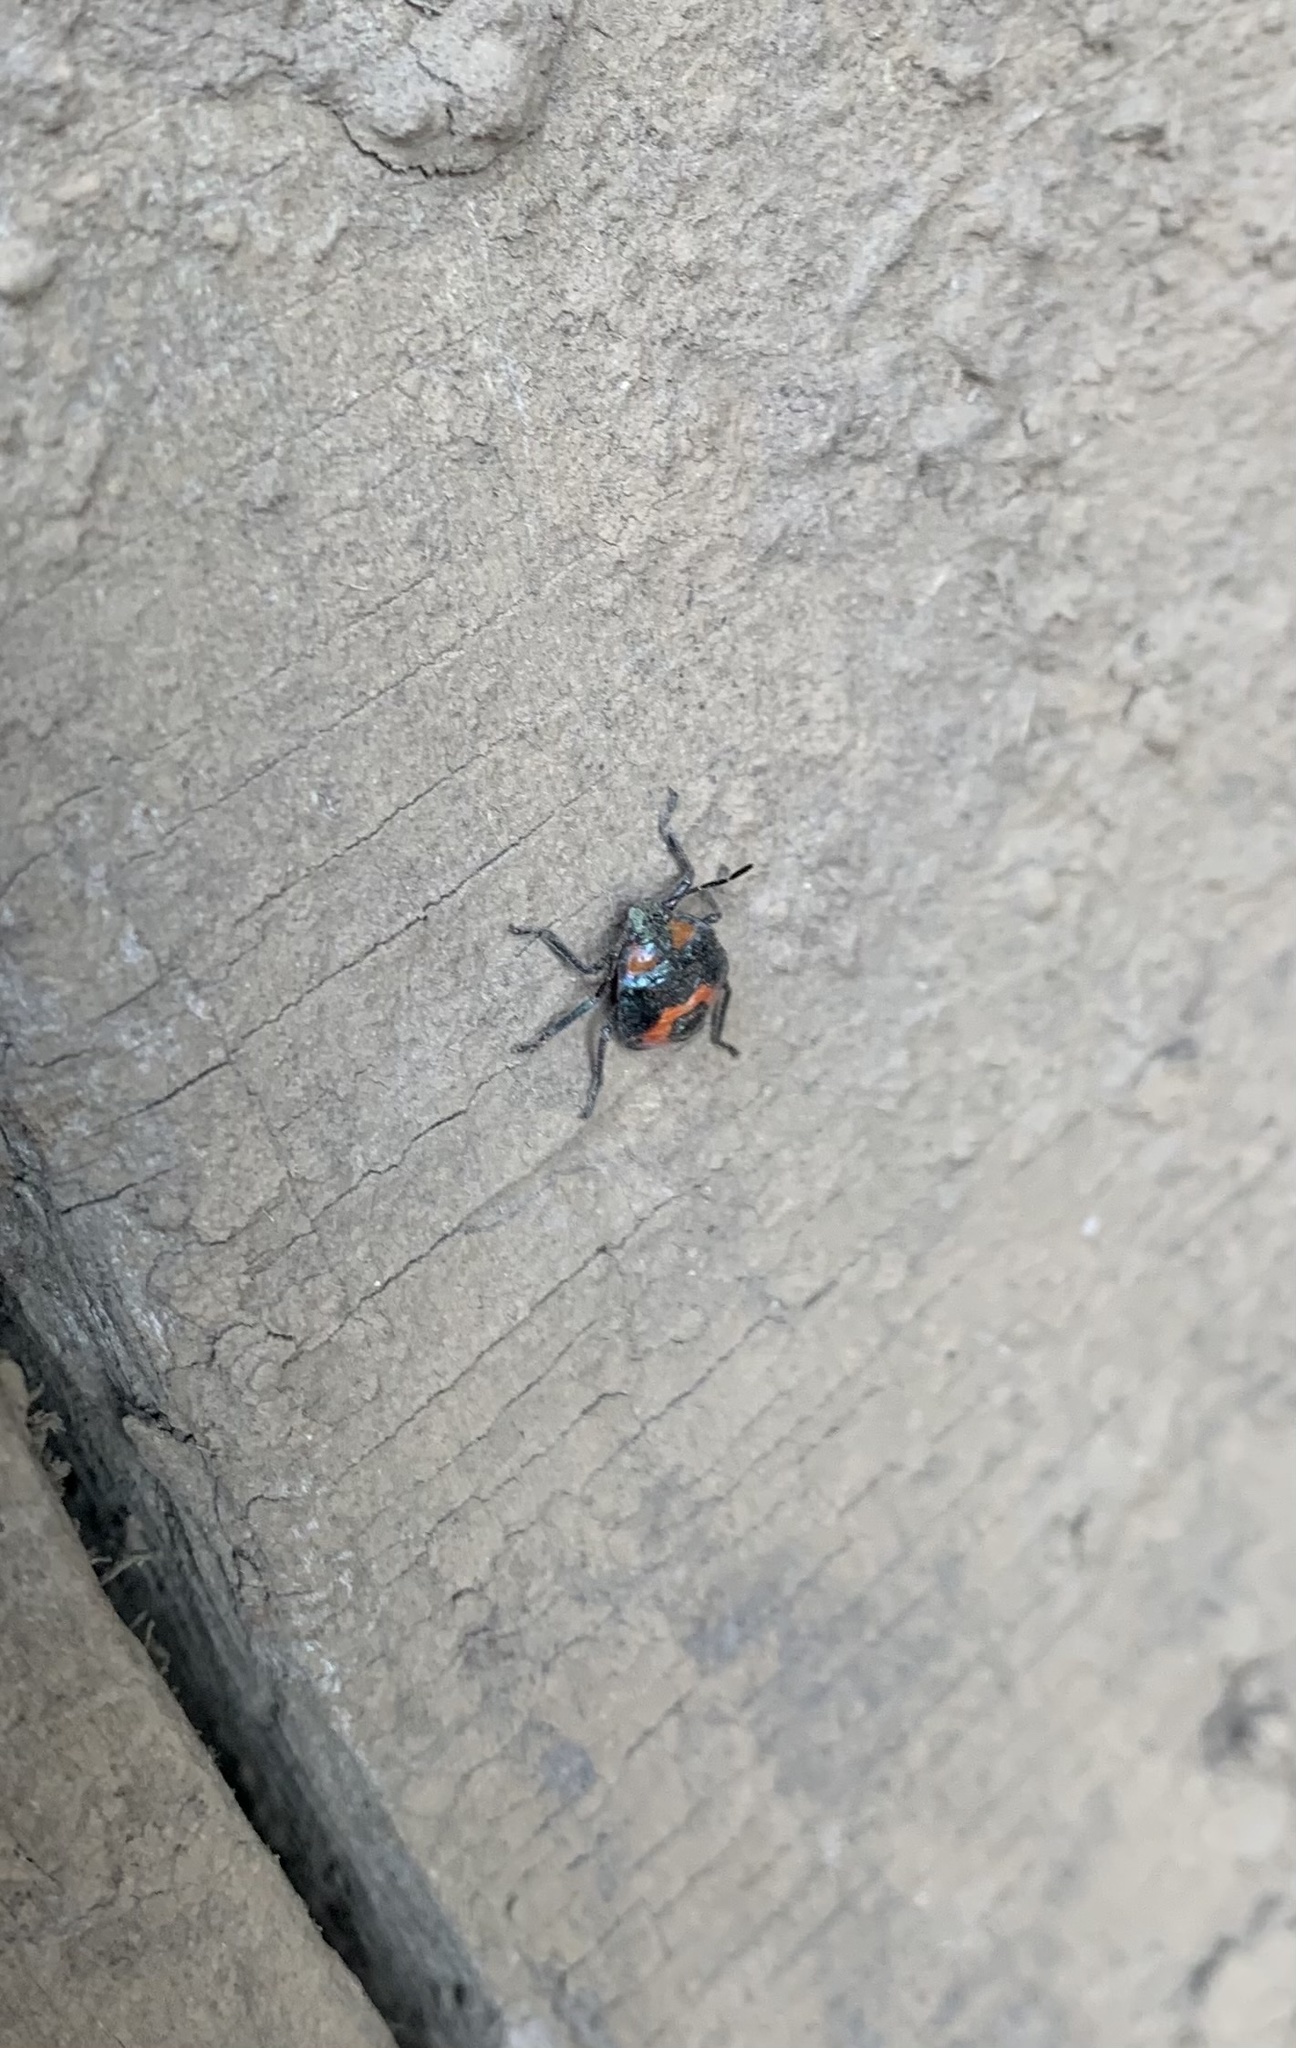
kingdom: Animalia
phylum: Arthropoda
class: Insecta
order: Hemiptera
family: Pentatomidae
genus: Brontocoris
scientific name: Brontocoris
